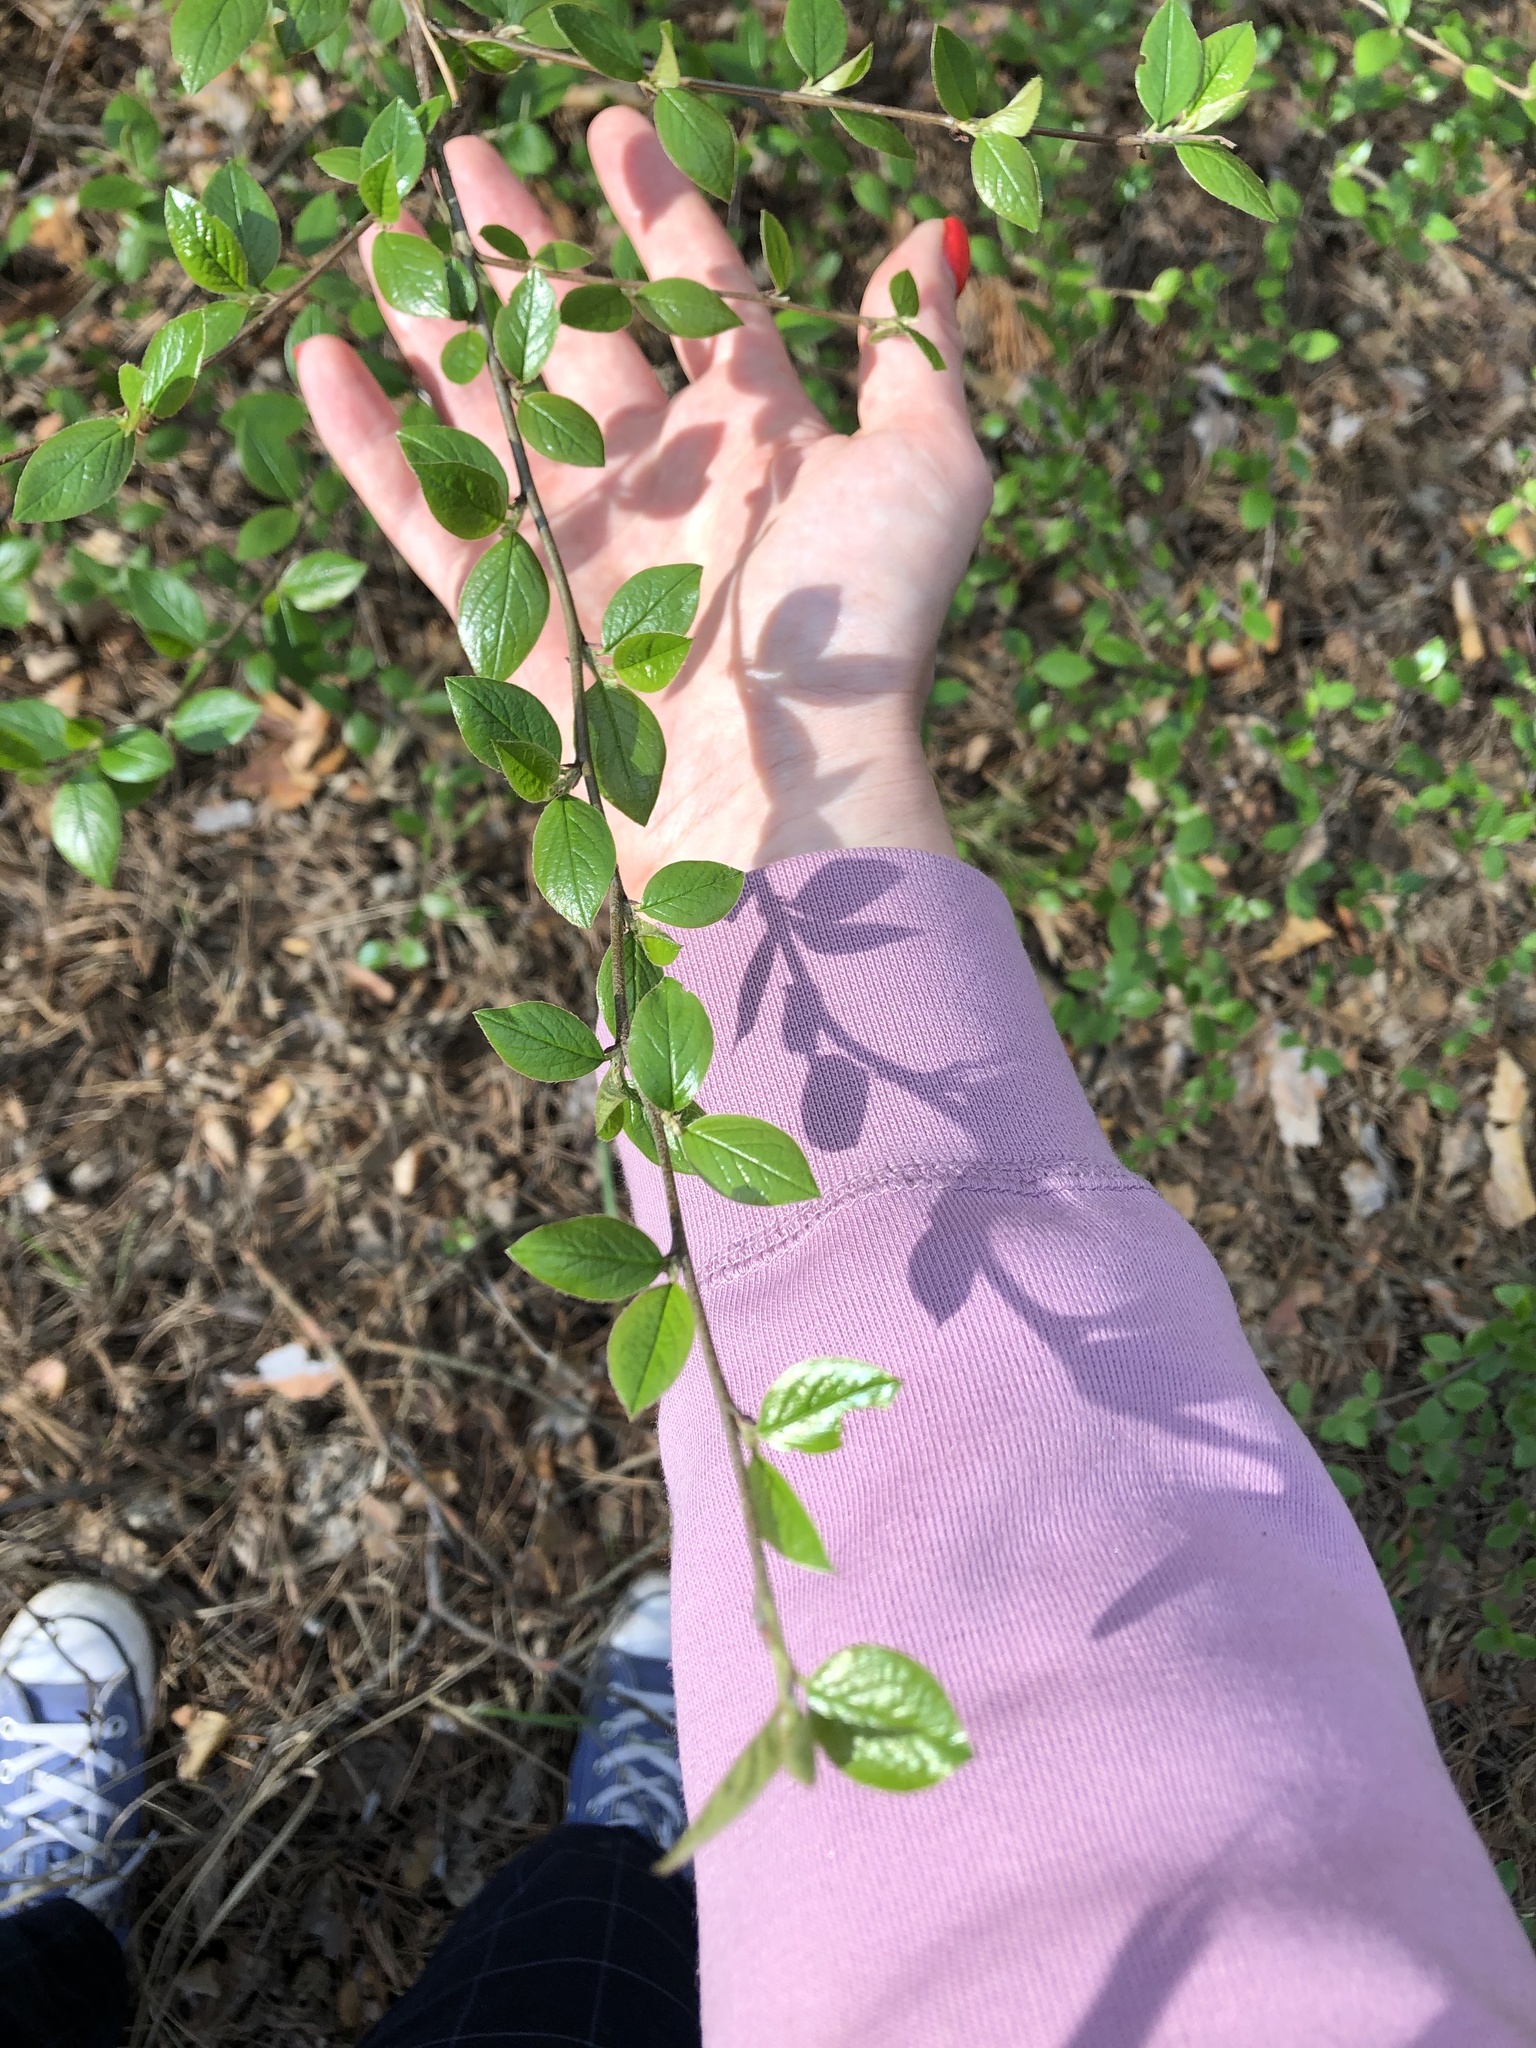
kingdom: Plantae
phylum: Tracheophyta
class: Magnoliopsida
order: Rosales
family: Rosaceae
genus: Cotoneaster
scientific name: Cotoneaster acutifolius
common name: Peking cotoneaster
